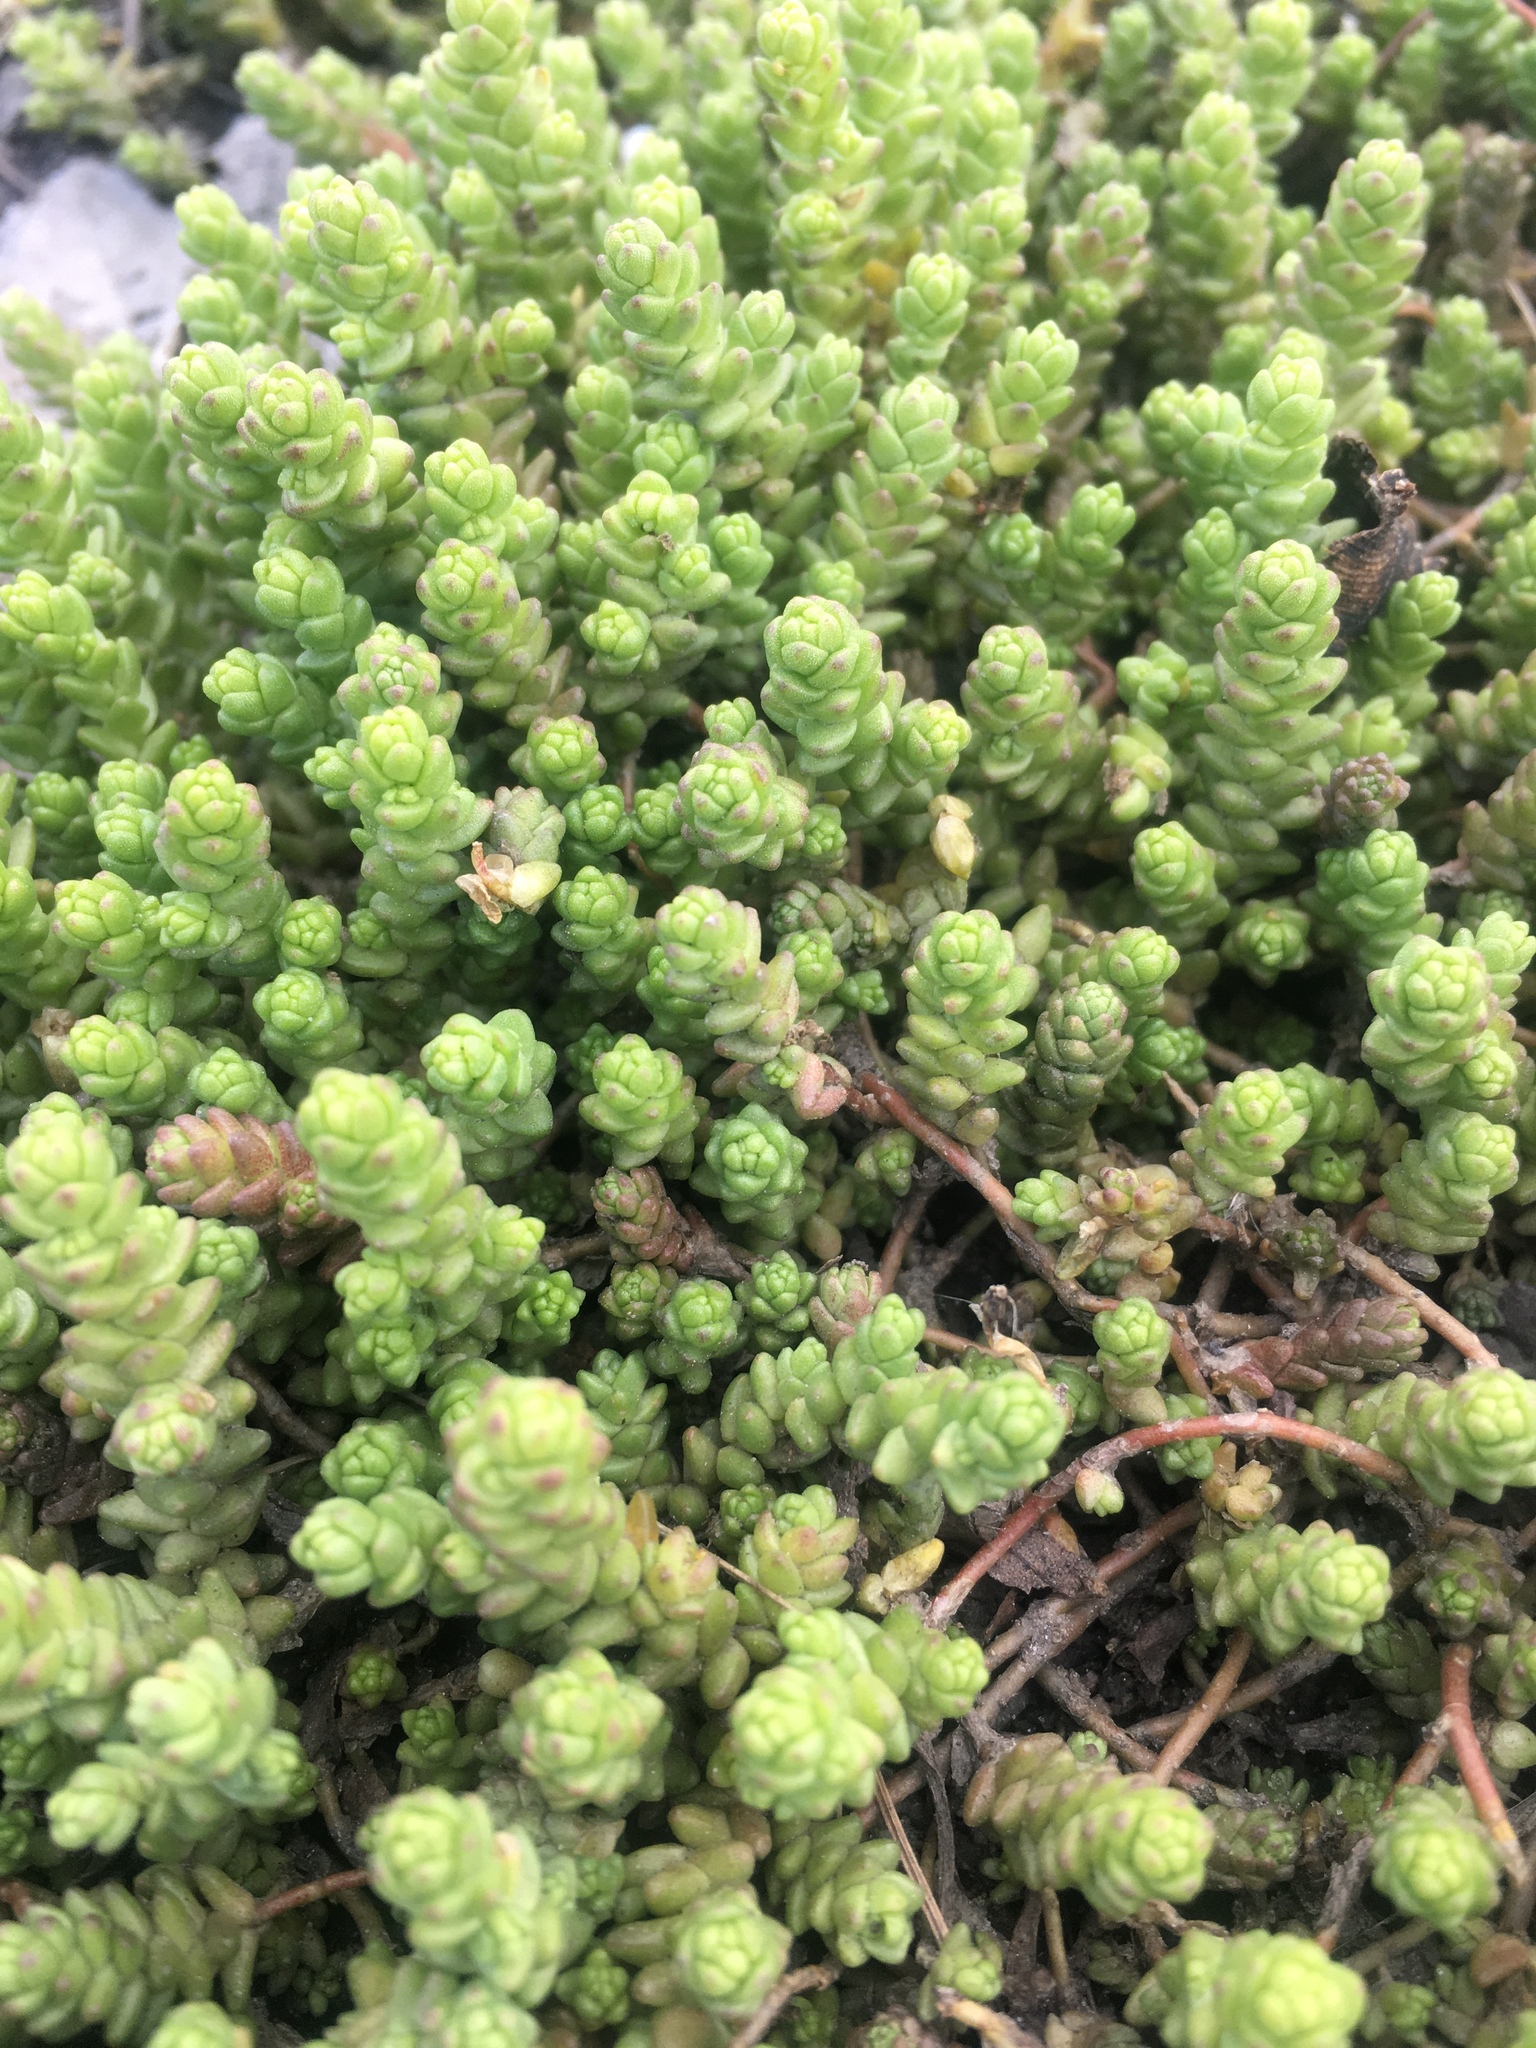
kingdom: Plantae
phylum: Tracheophyta
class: Magnoliopsida
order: Saxifragales
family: Crassulaceae
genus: Sedum
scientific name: Sedum acre
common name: Biting stonecrop
